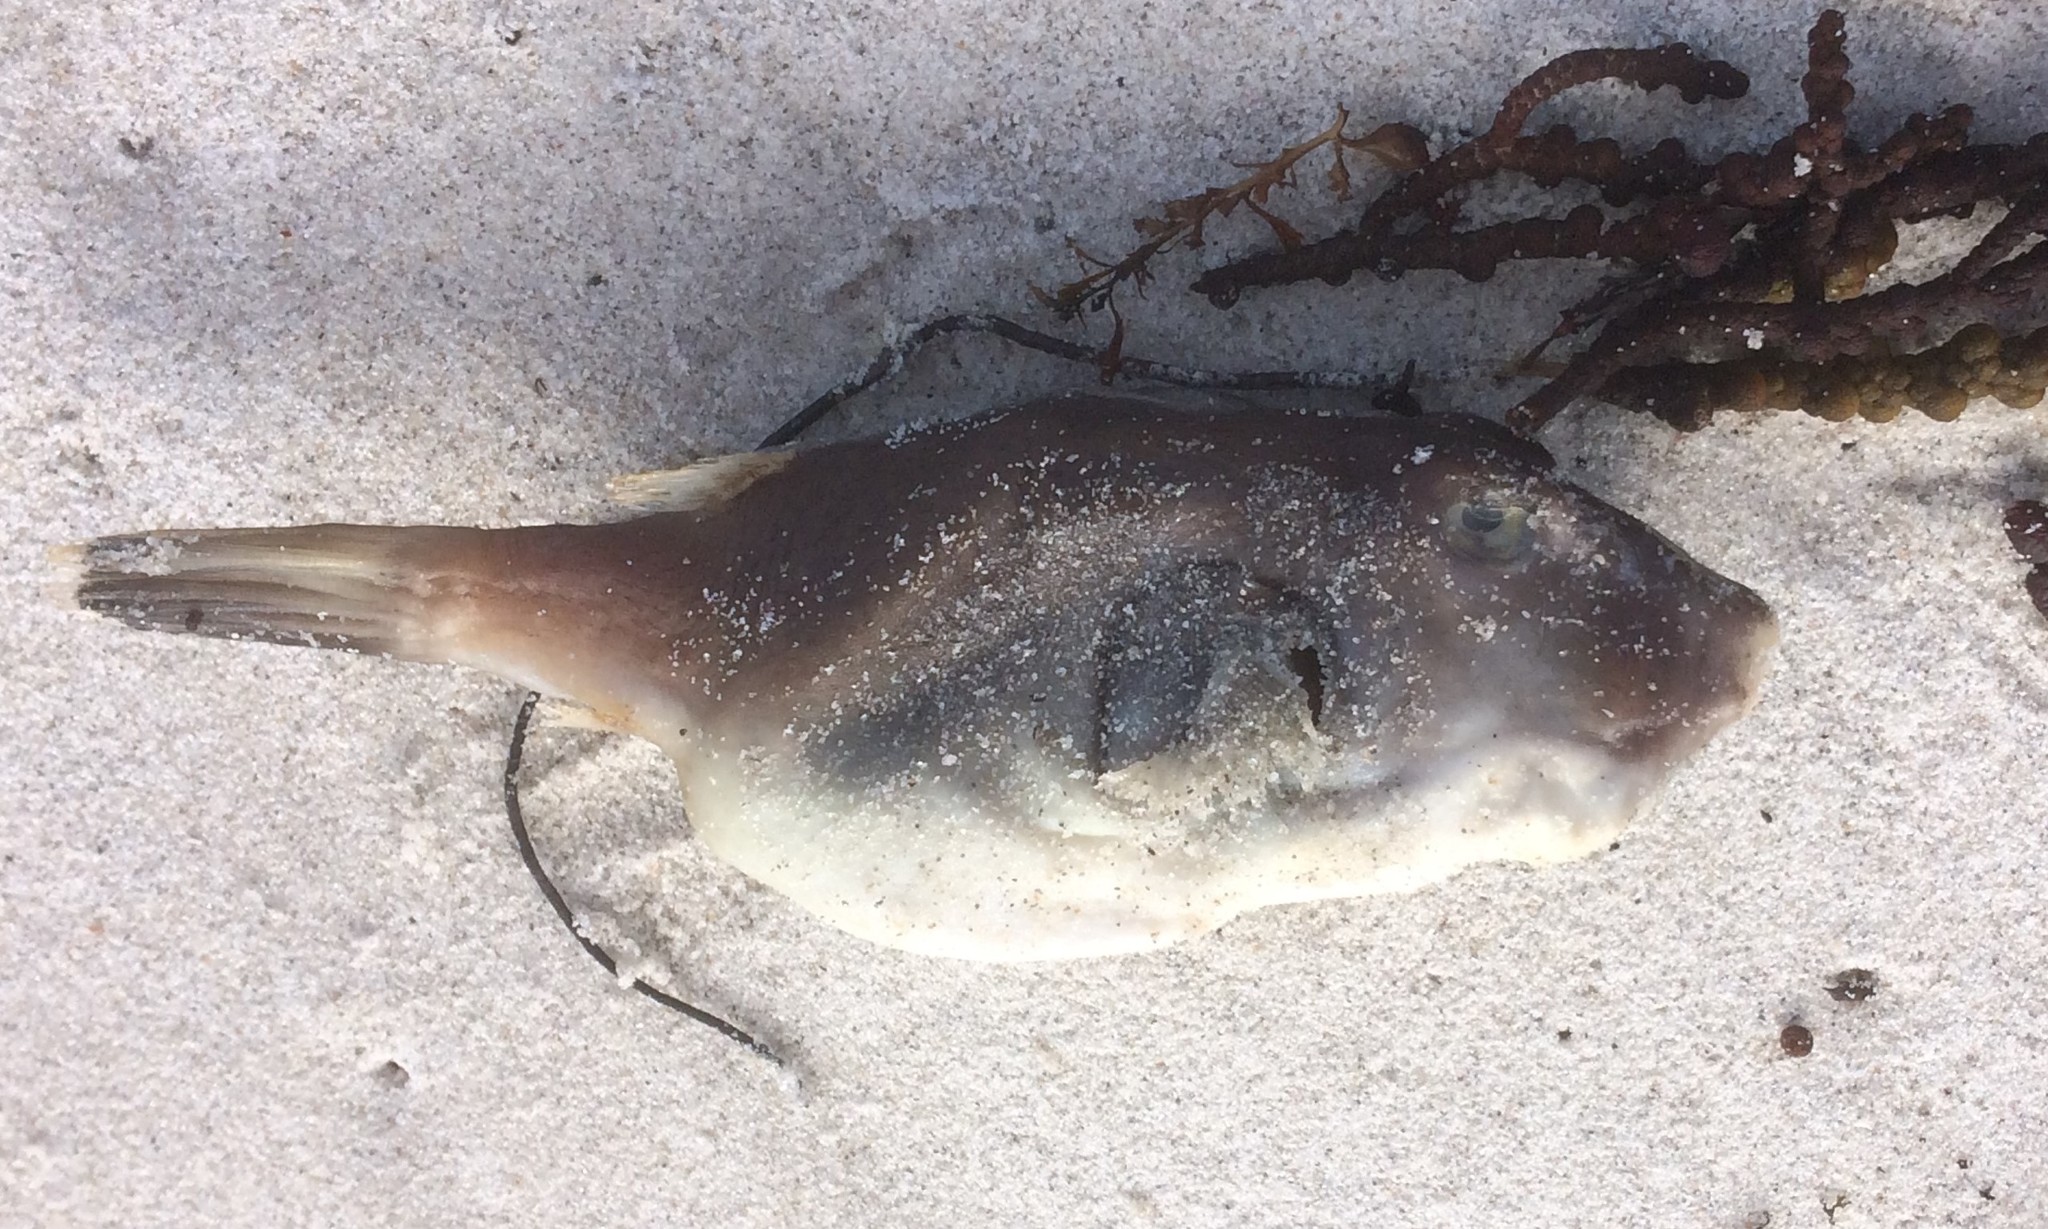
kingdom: Animalia
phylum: Chordata
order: Tetraodontiformes
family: Tetraodontidae
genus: Omegophora
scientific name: Omegophora armilla
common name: Ringed pufferfish
